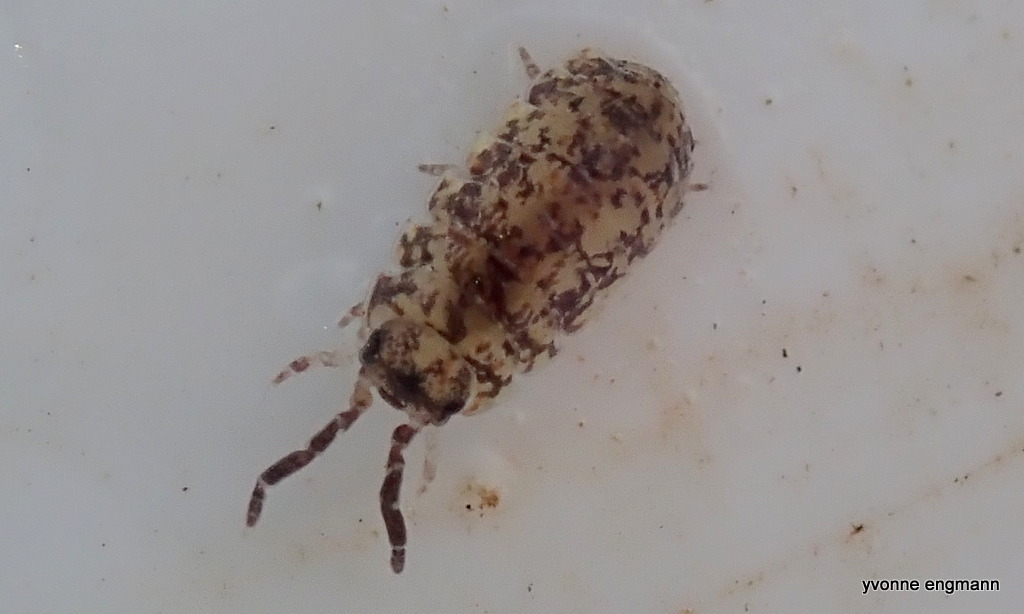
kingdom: Animalia
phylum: Arthropoda
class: Malacostraca
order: Isopoda
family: Porcellionidae
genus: Porcellio
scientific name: Porcellio scaber
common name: Common rough woodlouse
